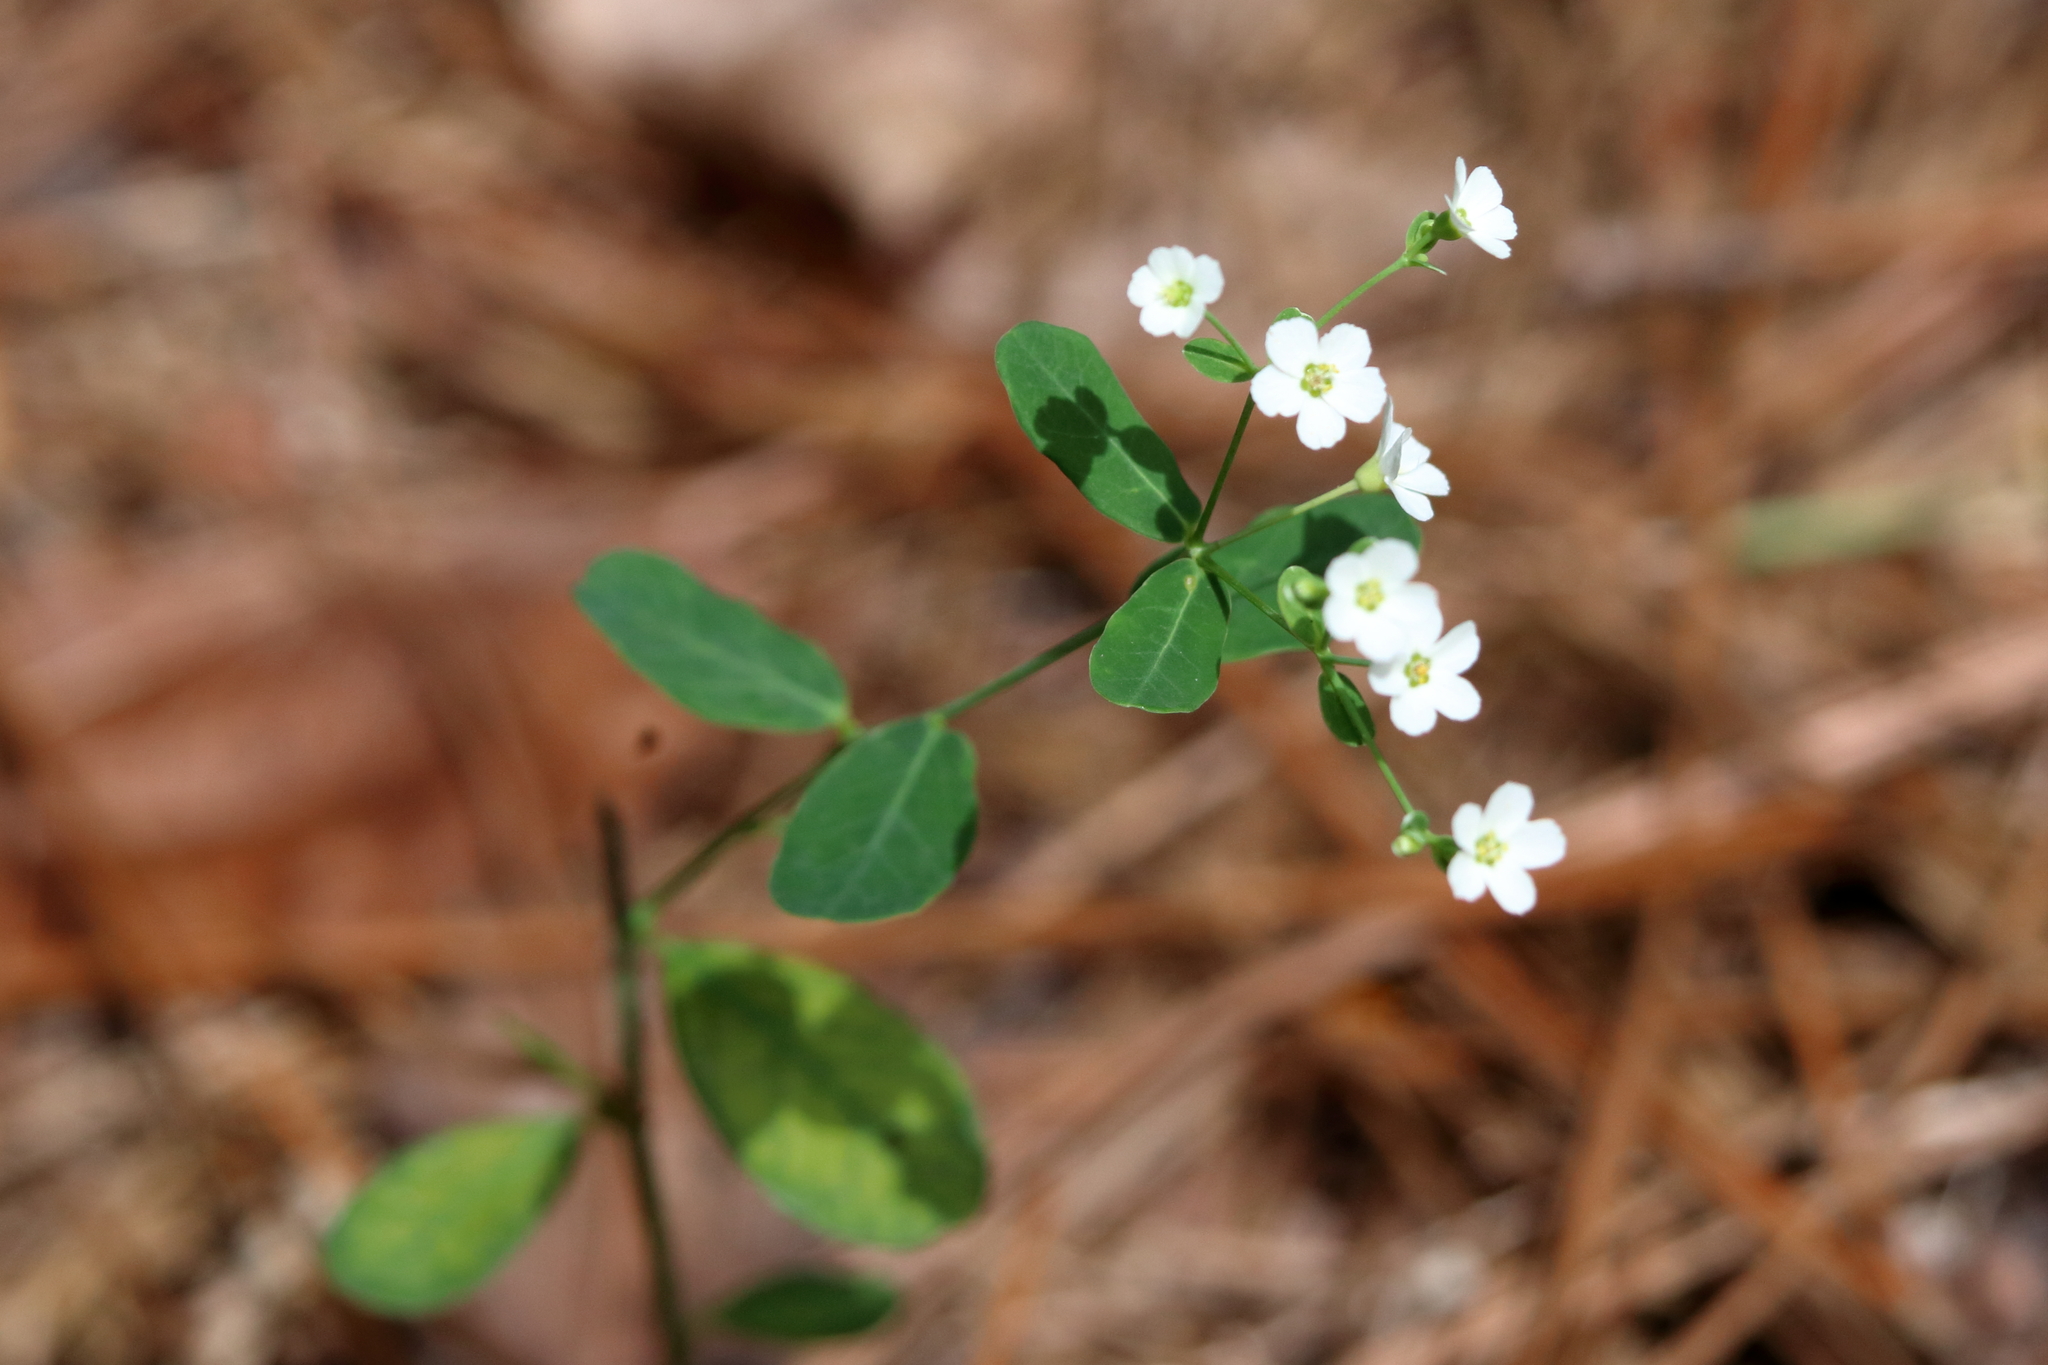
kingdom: Plantae
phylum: Tracheophyta
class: Magnoliopsida
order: Malpighiales
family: Euphorbiaceae
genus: Euphorbia
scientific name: Euphorbia pubentissima
